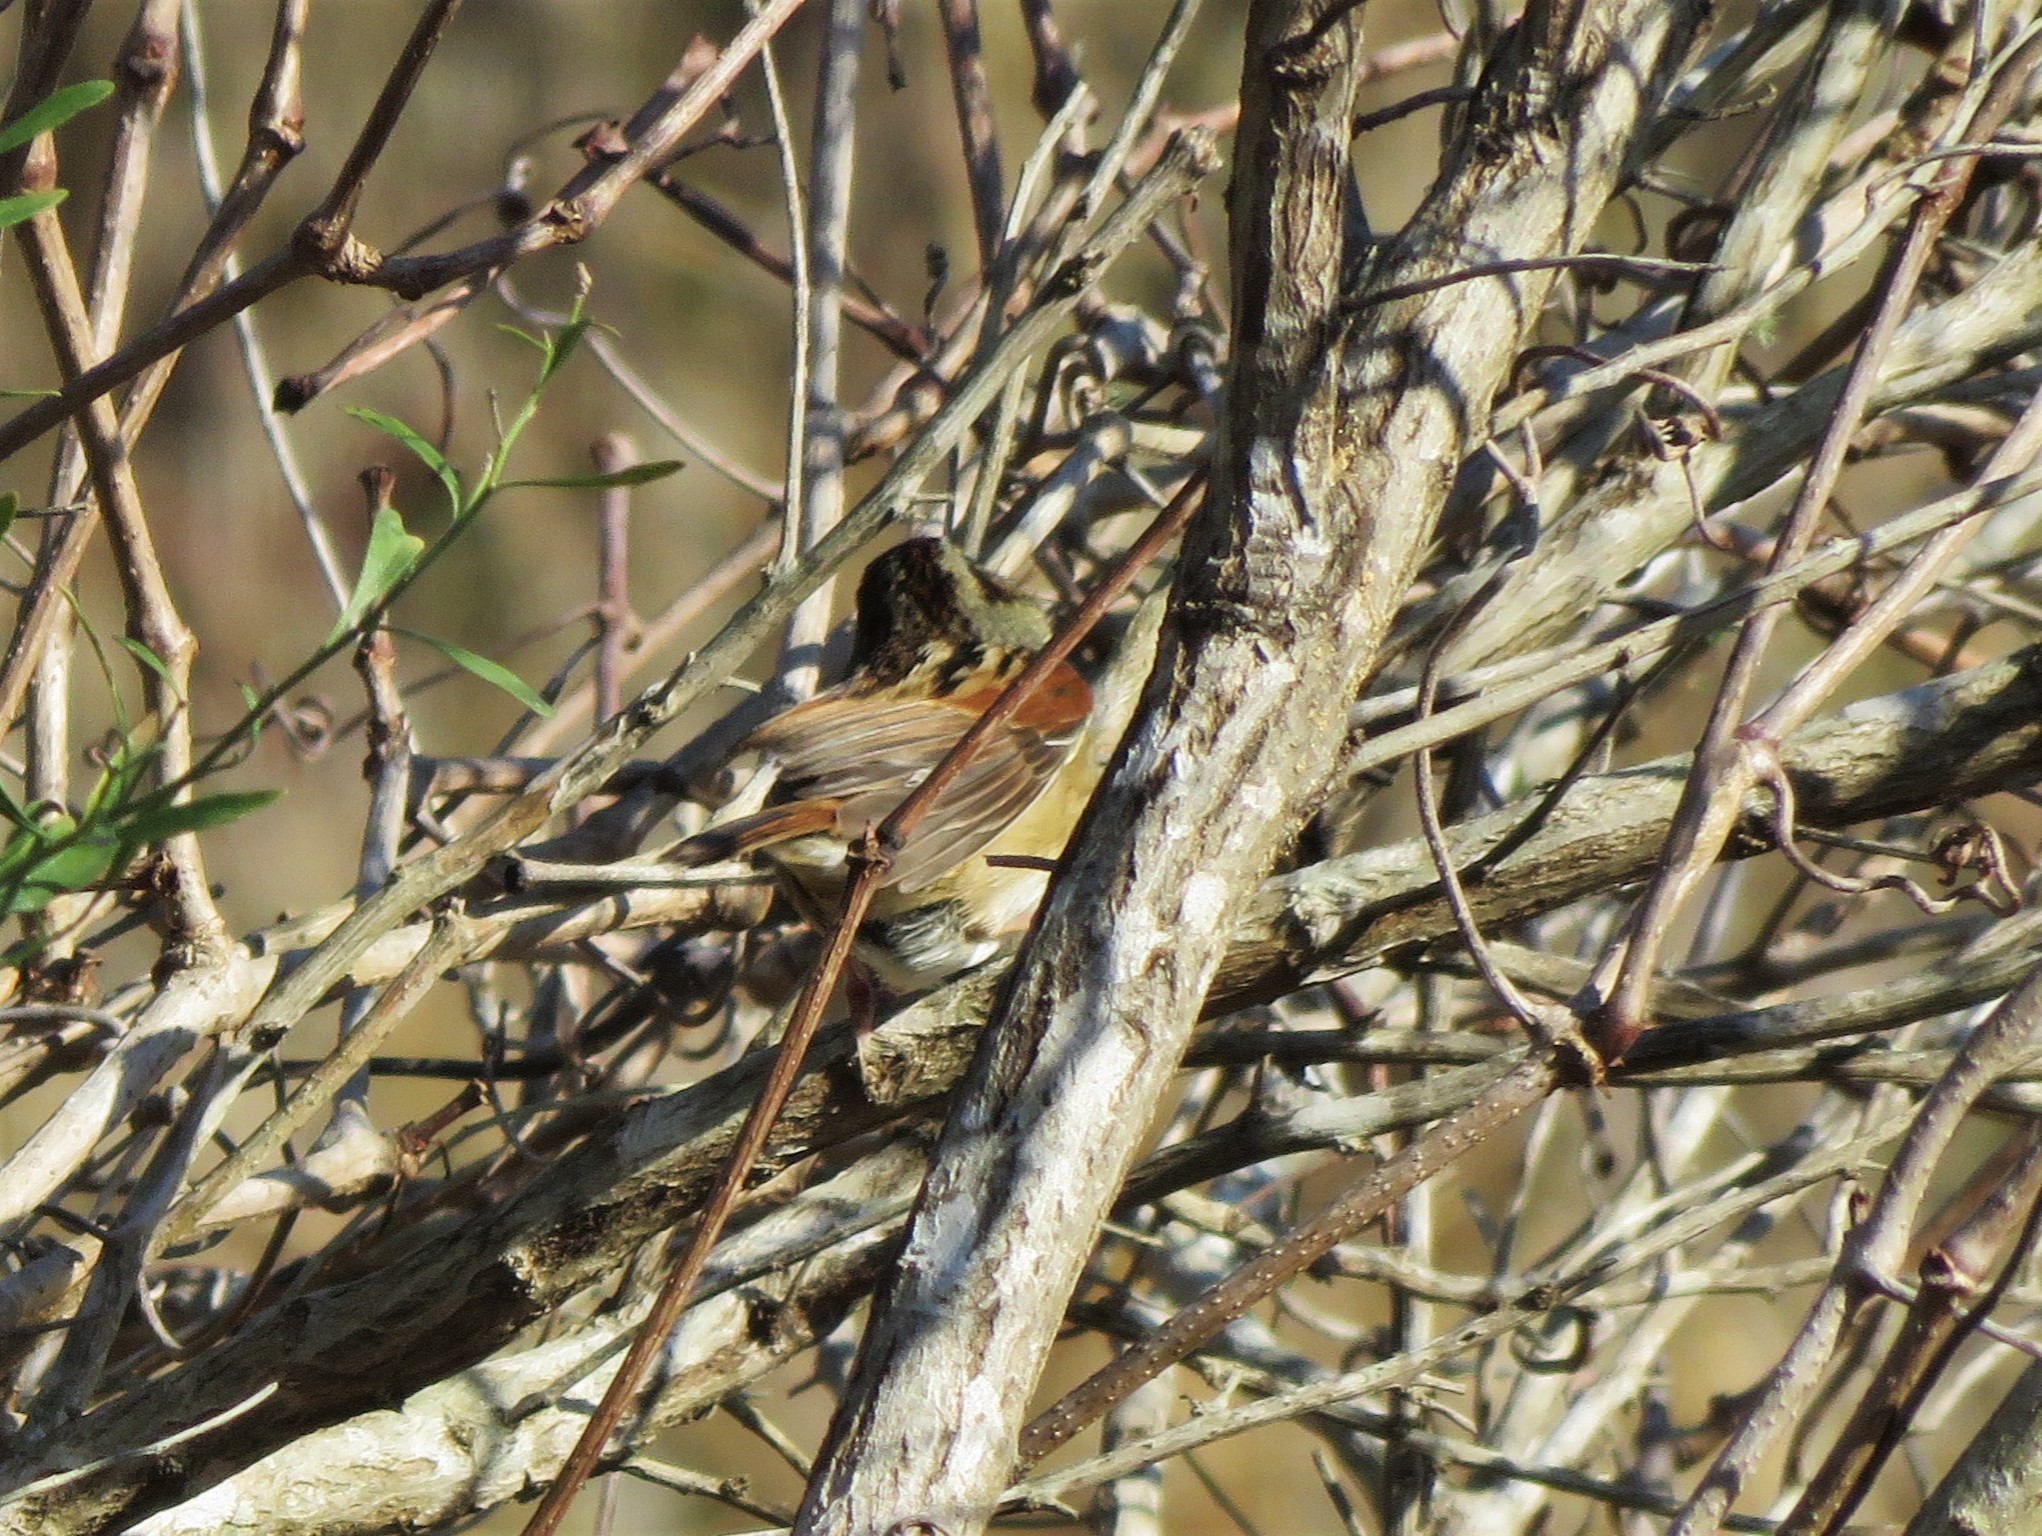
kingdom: Animalia
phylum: Chordata
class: Aves
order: Passeriformes
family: Passerellidae
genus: Melospiza
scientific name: Melospiza georgiana
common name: Swamp sparrow
